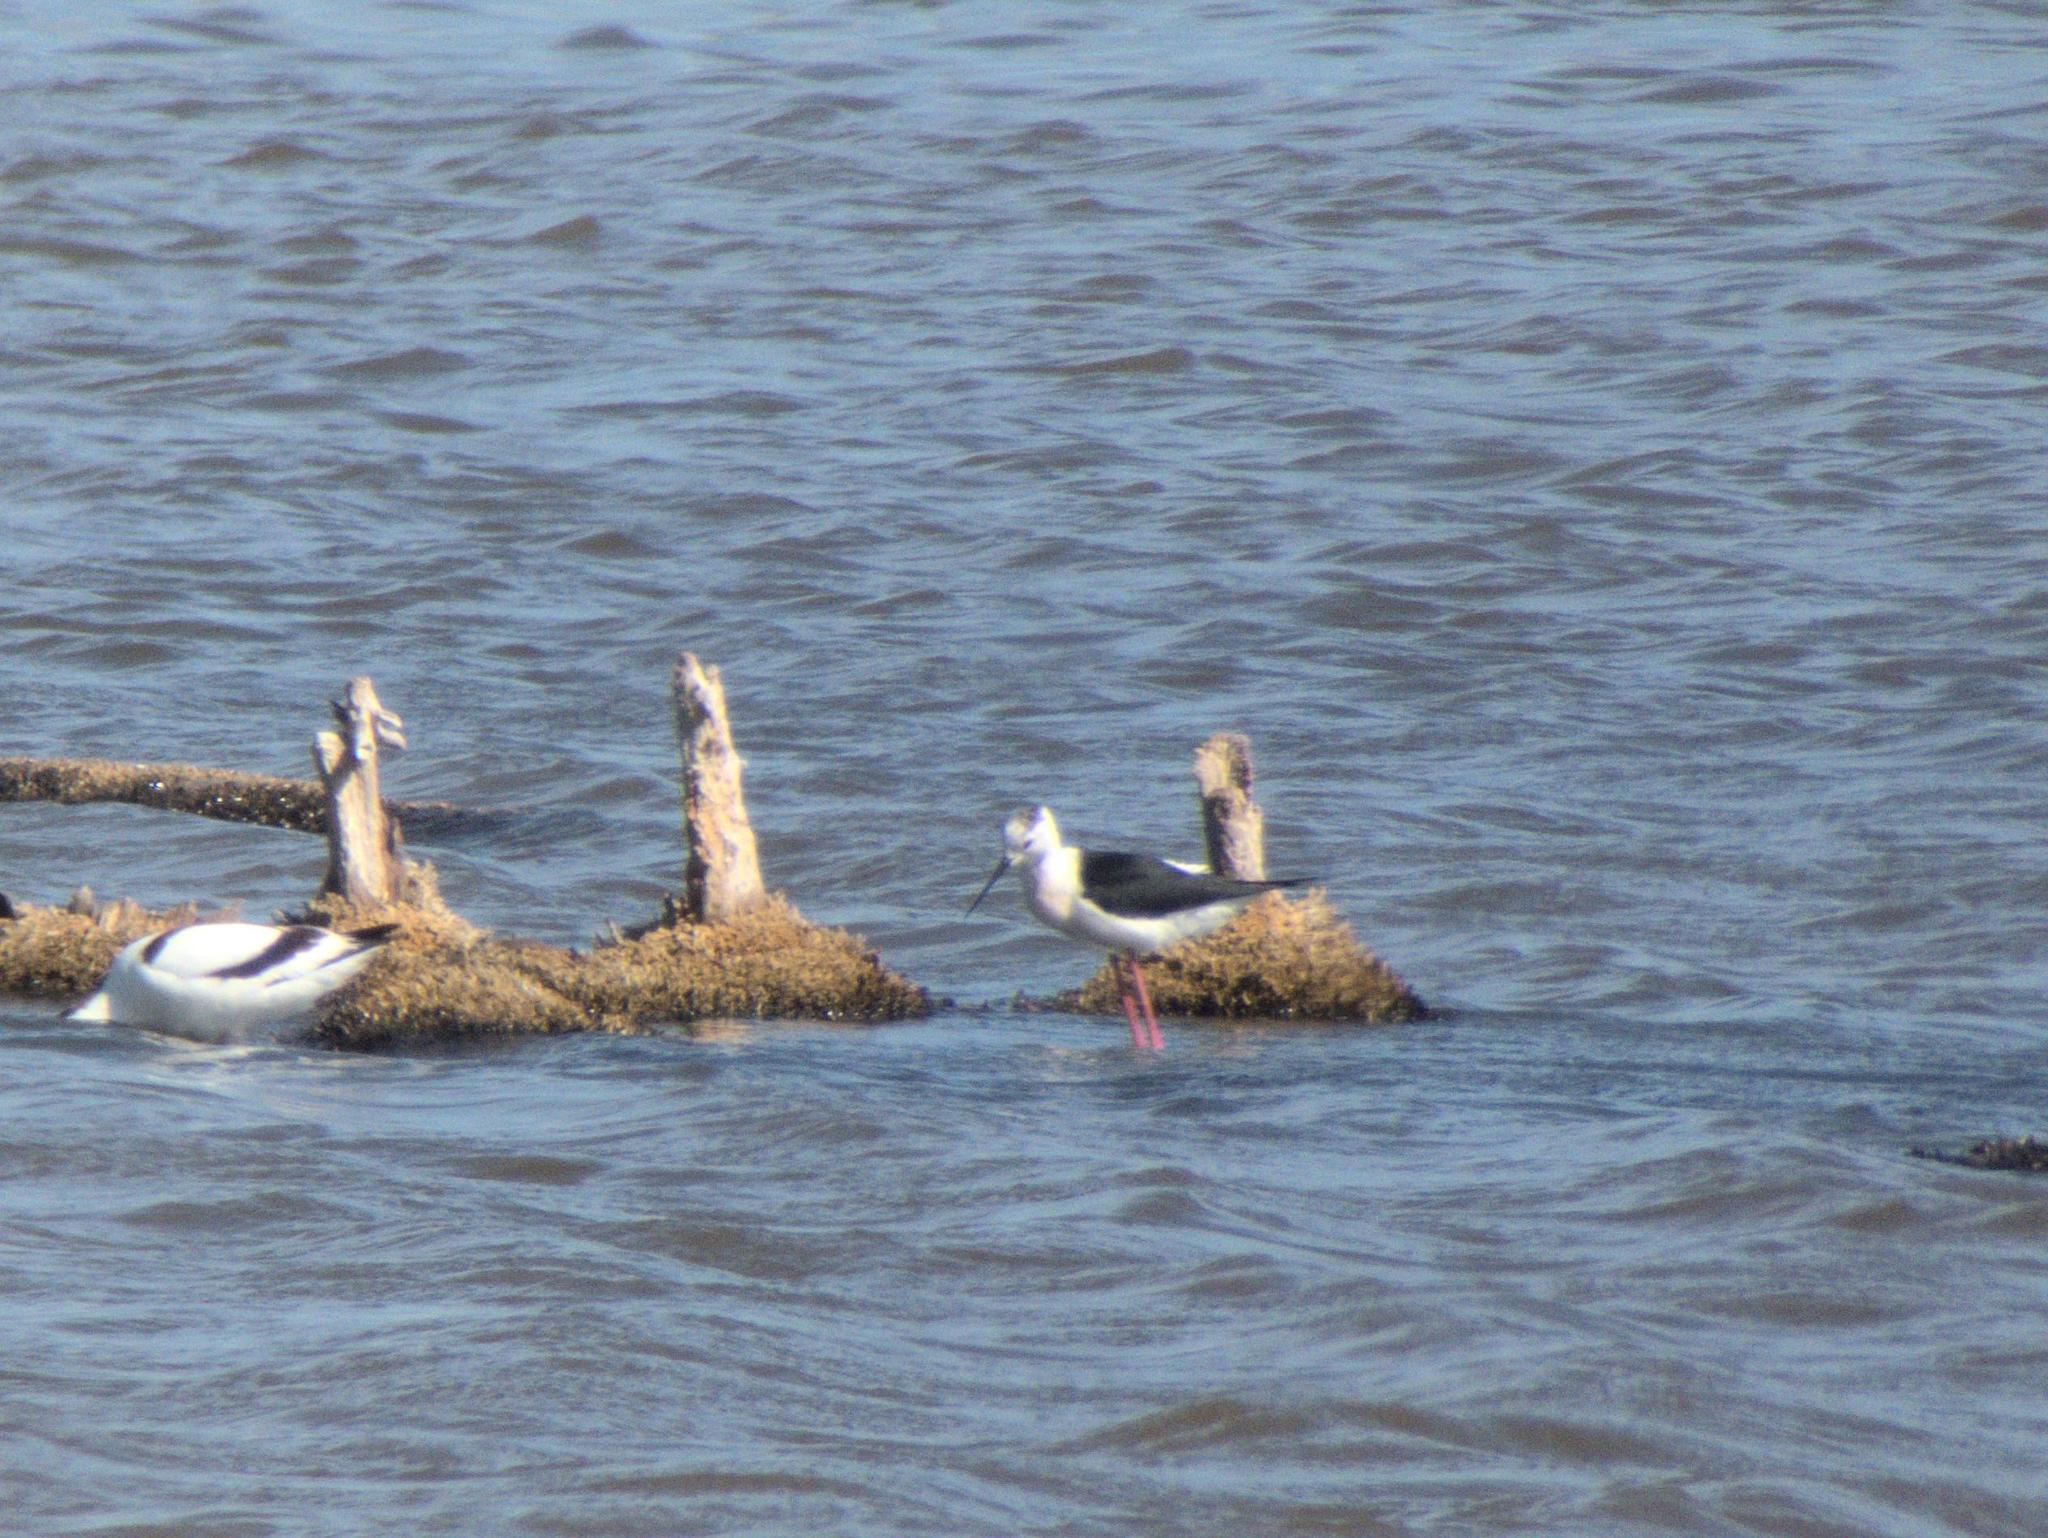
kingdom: Animalia
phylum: Chordata
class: Aves
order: Charadriiformes
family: Recurvirostridae
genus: Himantopus
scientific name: Himantopus himantopus
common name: Black-winged stilt
